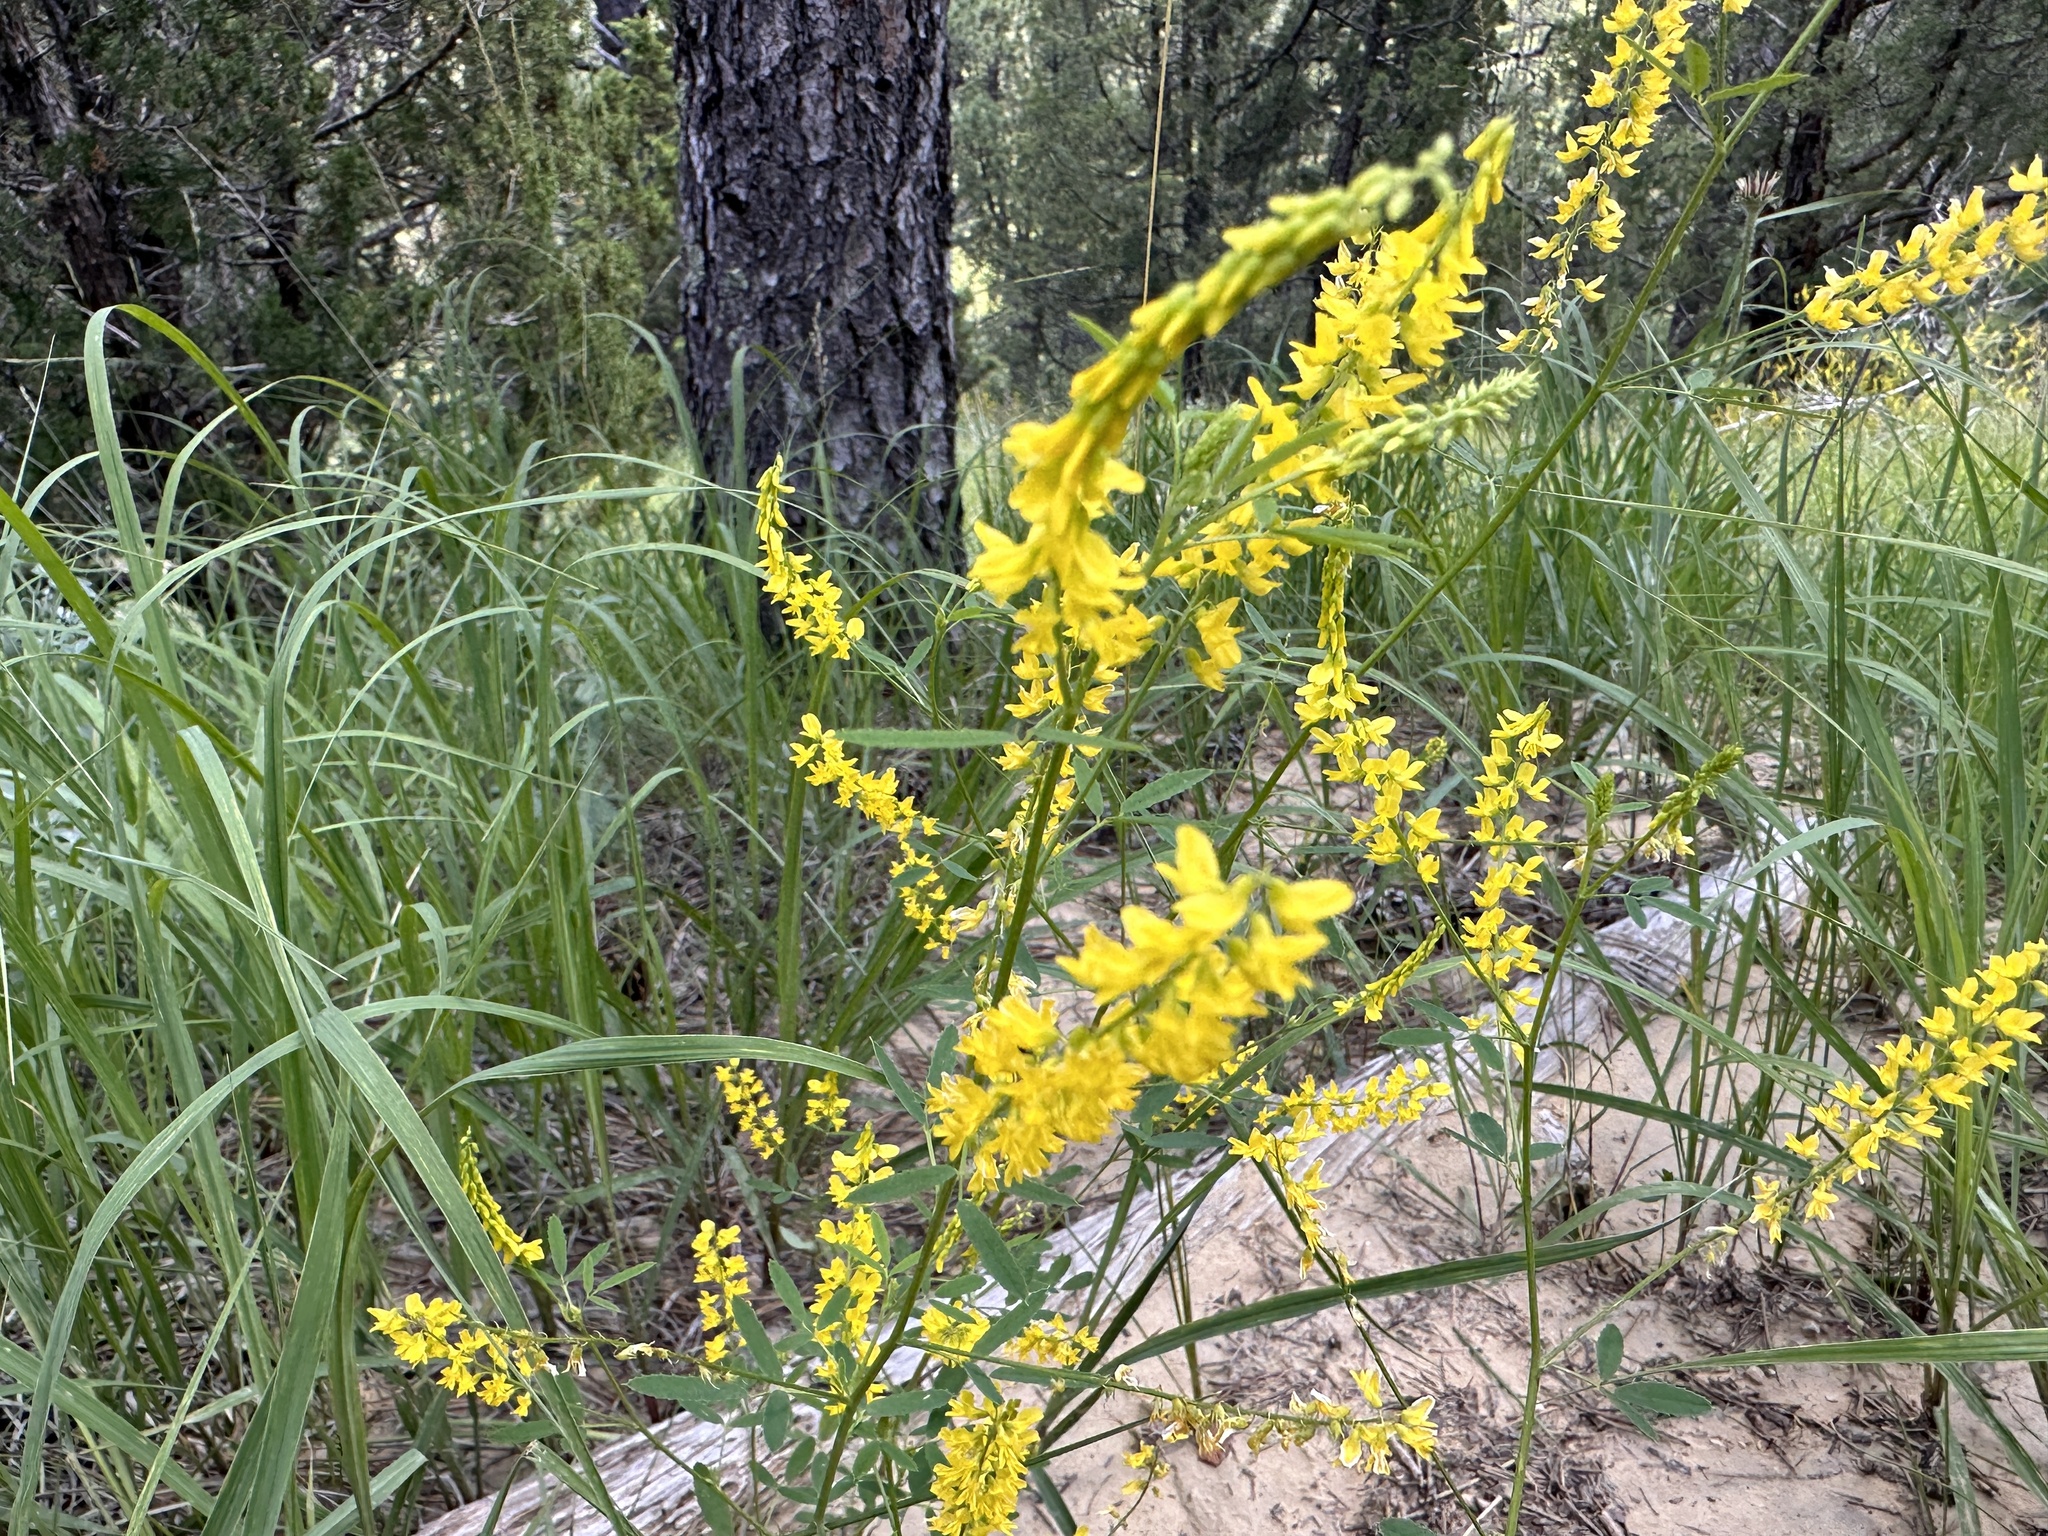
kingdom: Plantae
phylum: Tracheophyta
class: Magnoliopsida
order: Fabales
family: Fabaceae
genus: Melilotus
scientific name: Melilotus officinalis
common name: Sweetclover
